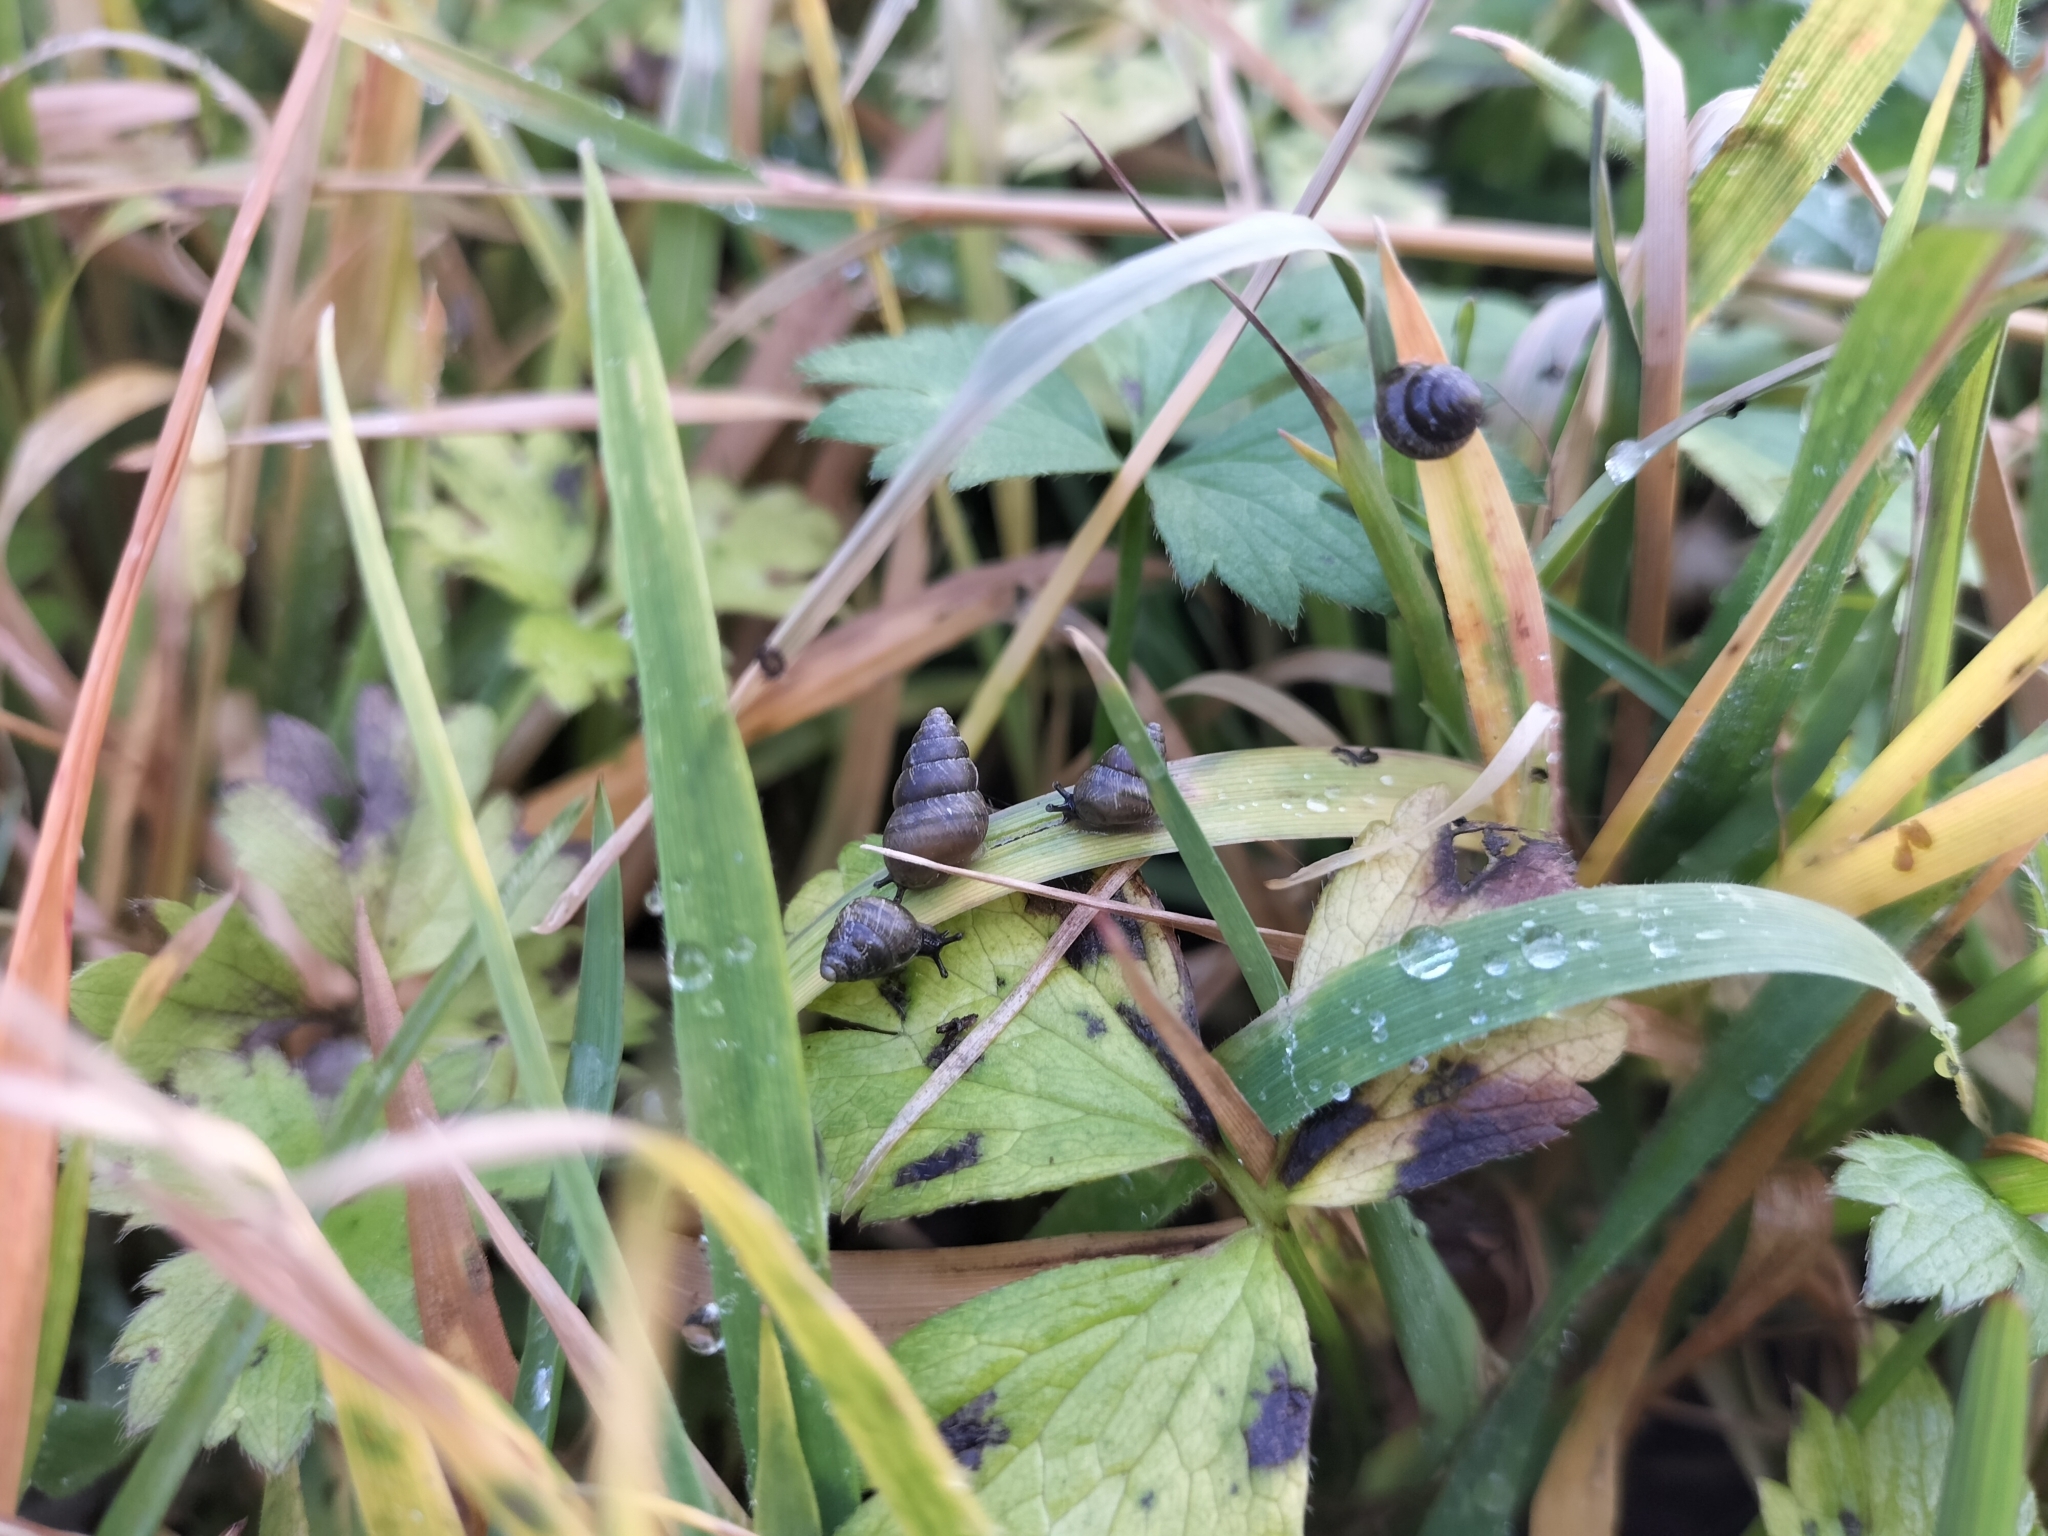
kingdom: Animalia
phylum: Mollusca
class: Gastropoda
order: Stylommatophora
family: Geomitridae
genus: Cochlicella
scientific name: Cochlicella barbara
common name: Potbellied helicellid
